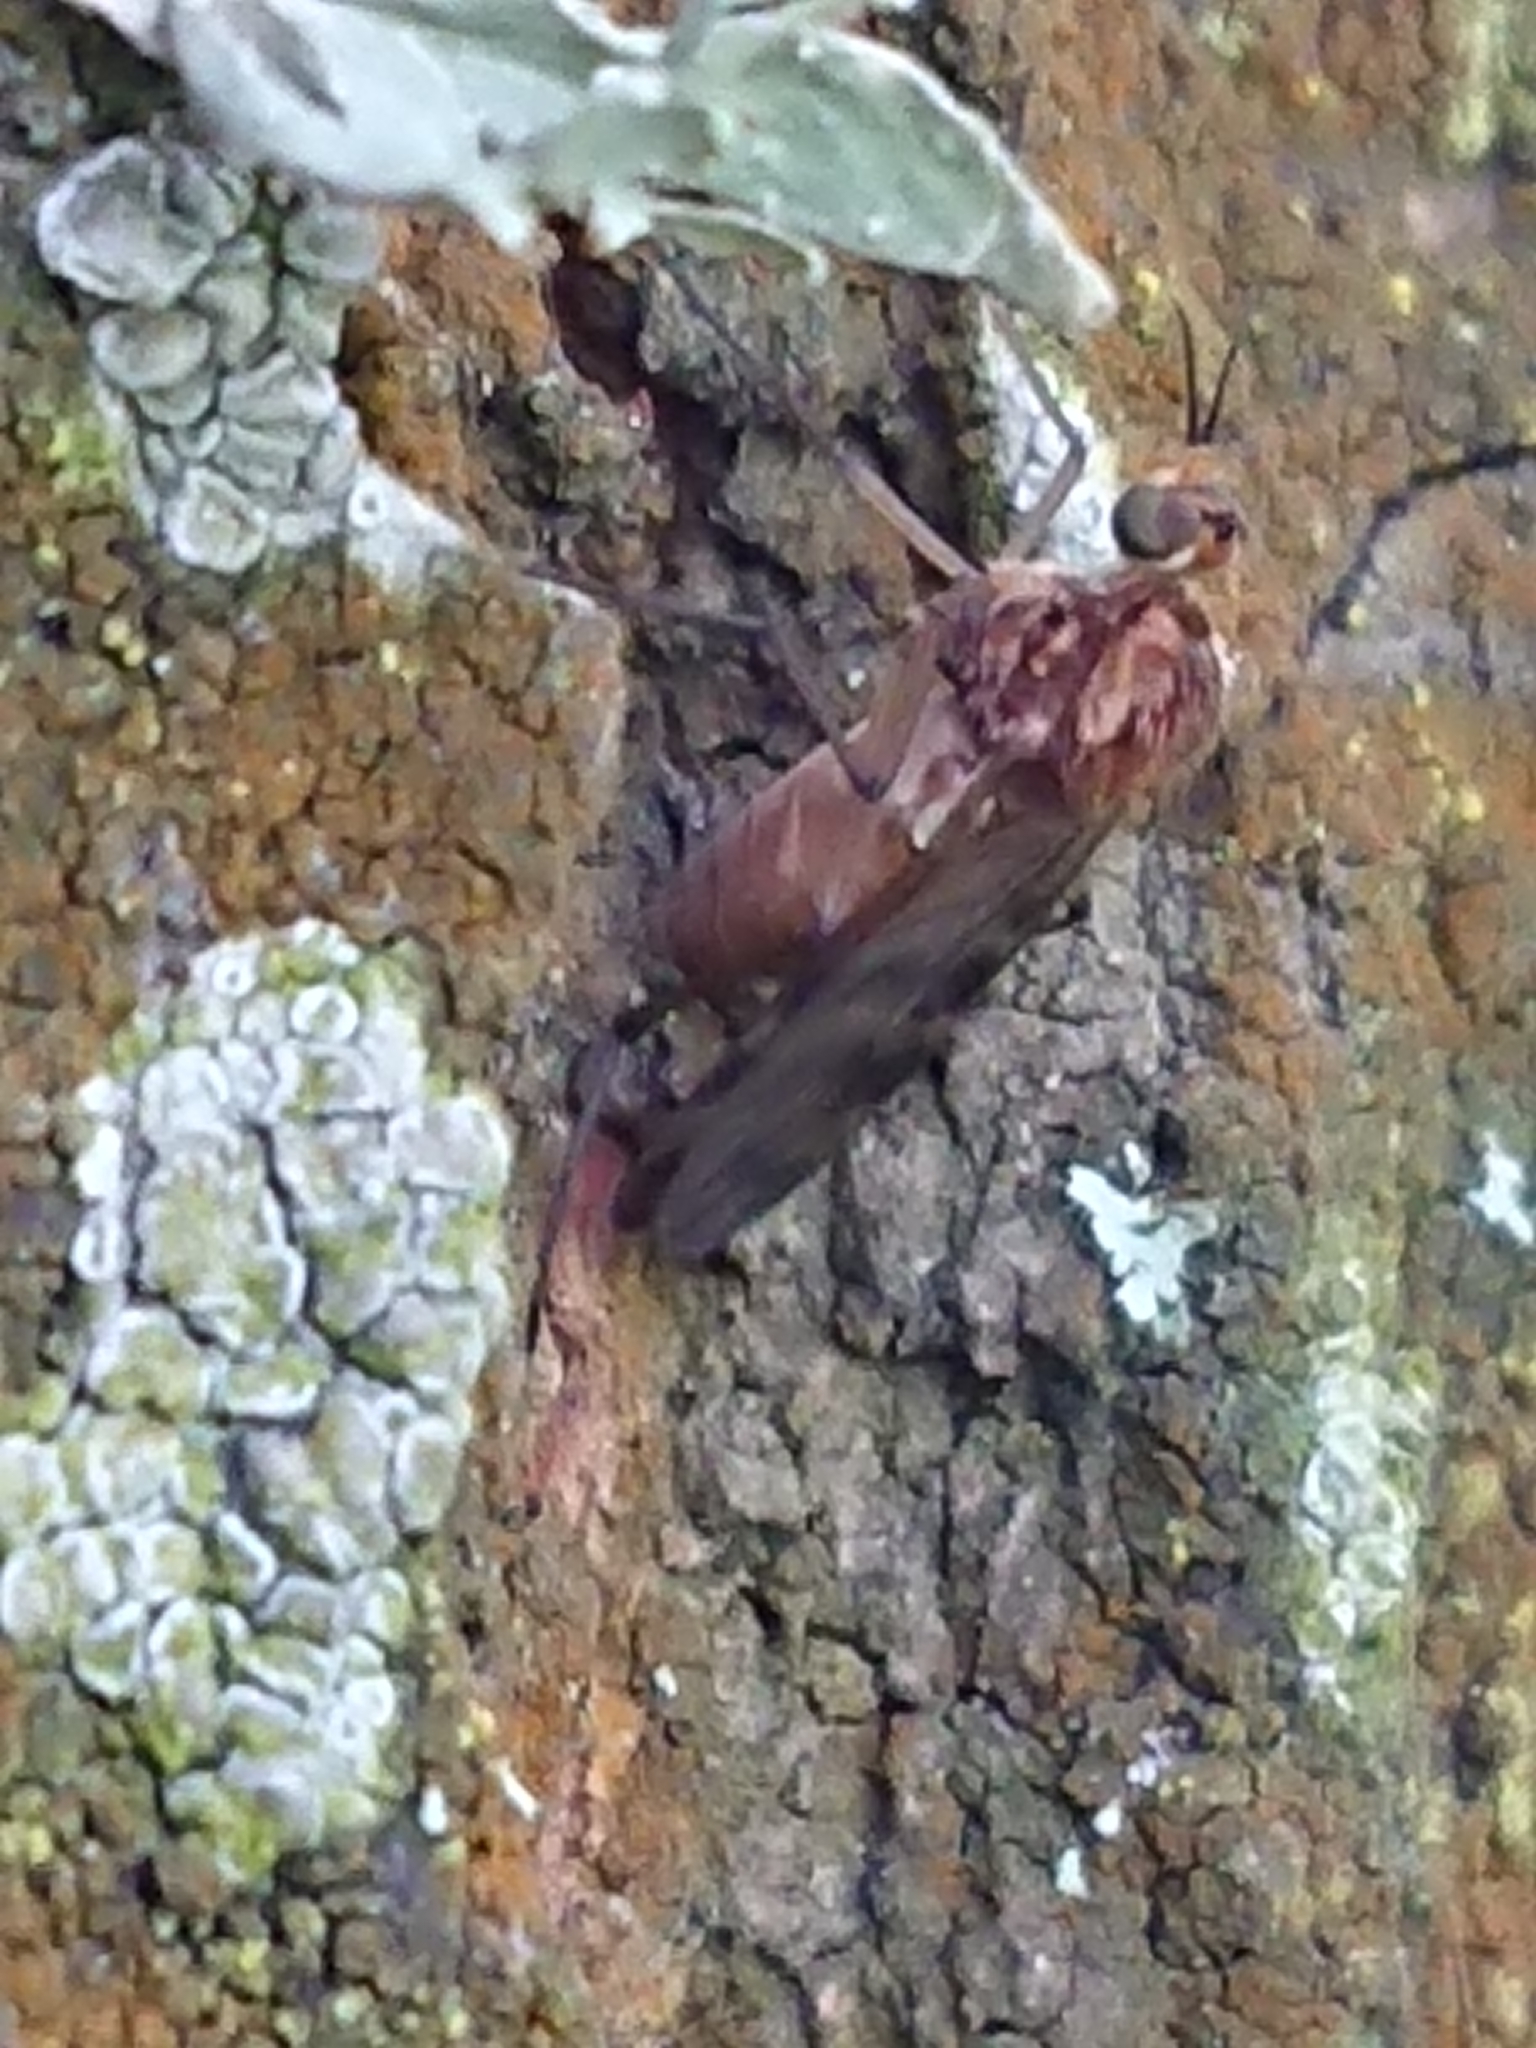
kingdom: Animalia
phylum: Arthropoda
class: Insecta
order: Diptera
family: Anisopodidae
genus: Sylvicola
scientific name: Sylvicola dubius
